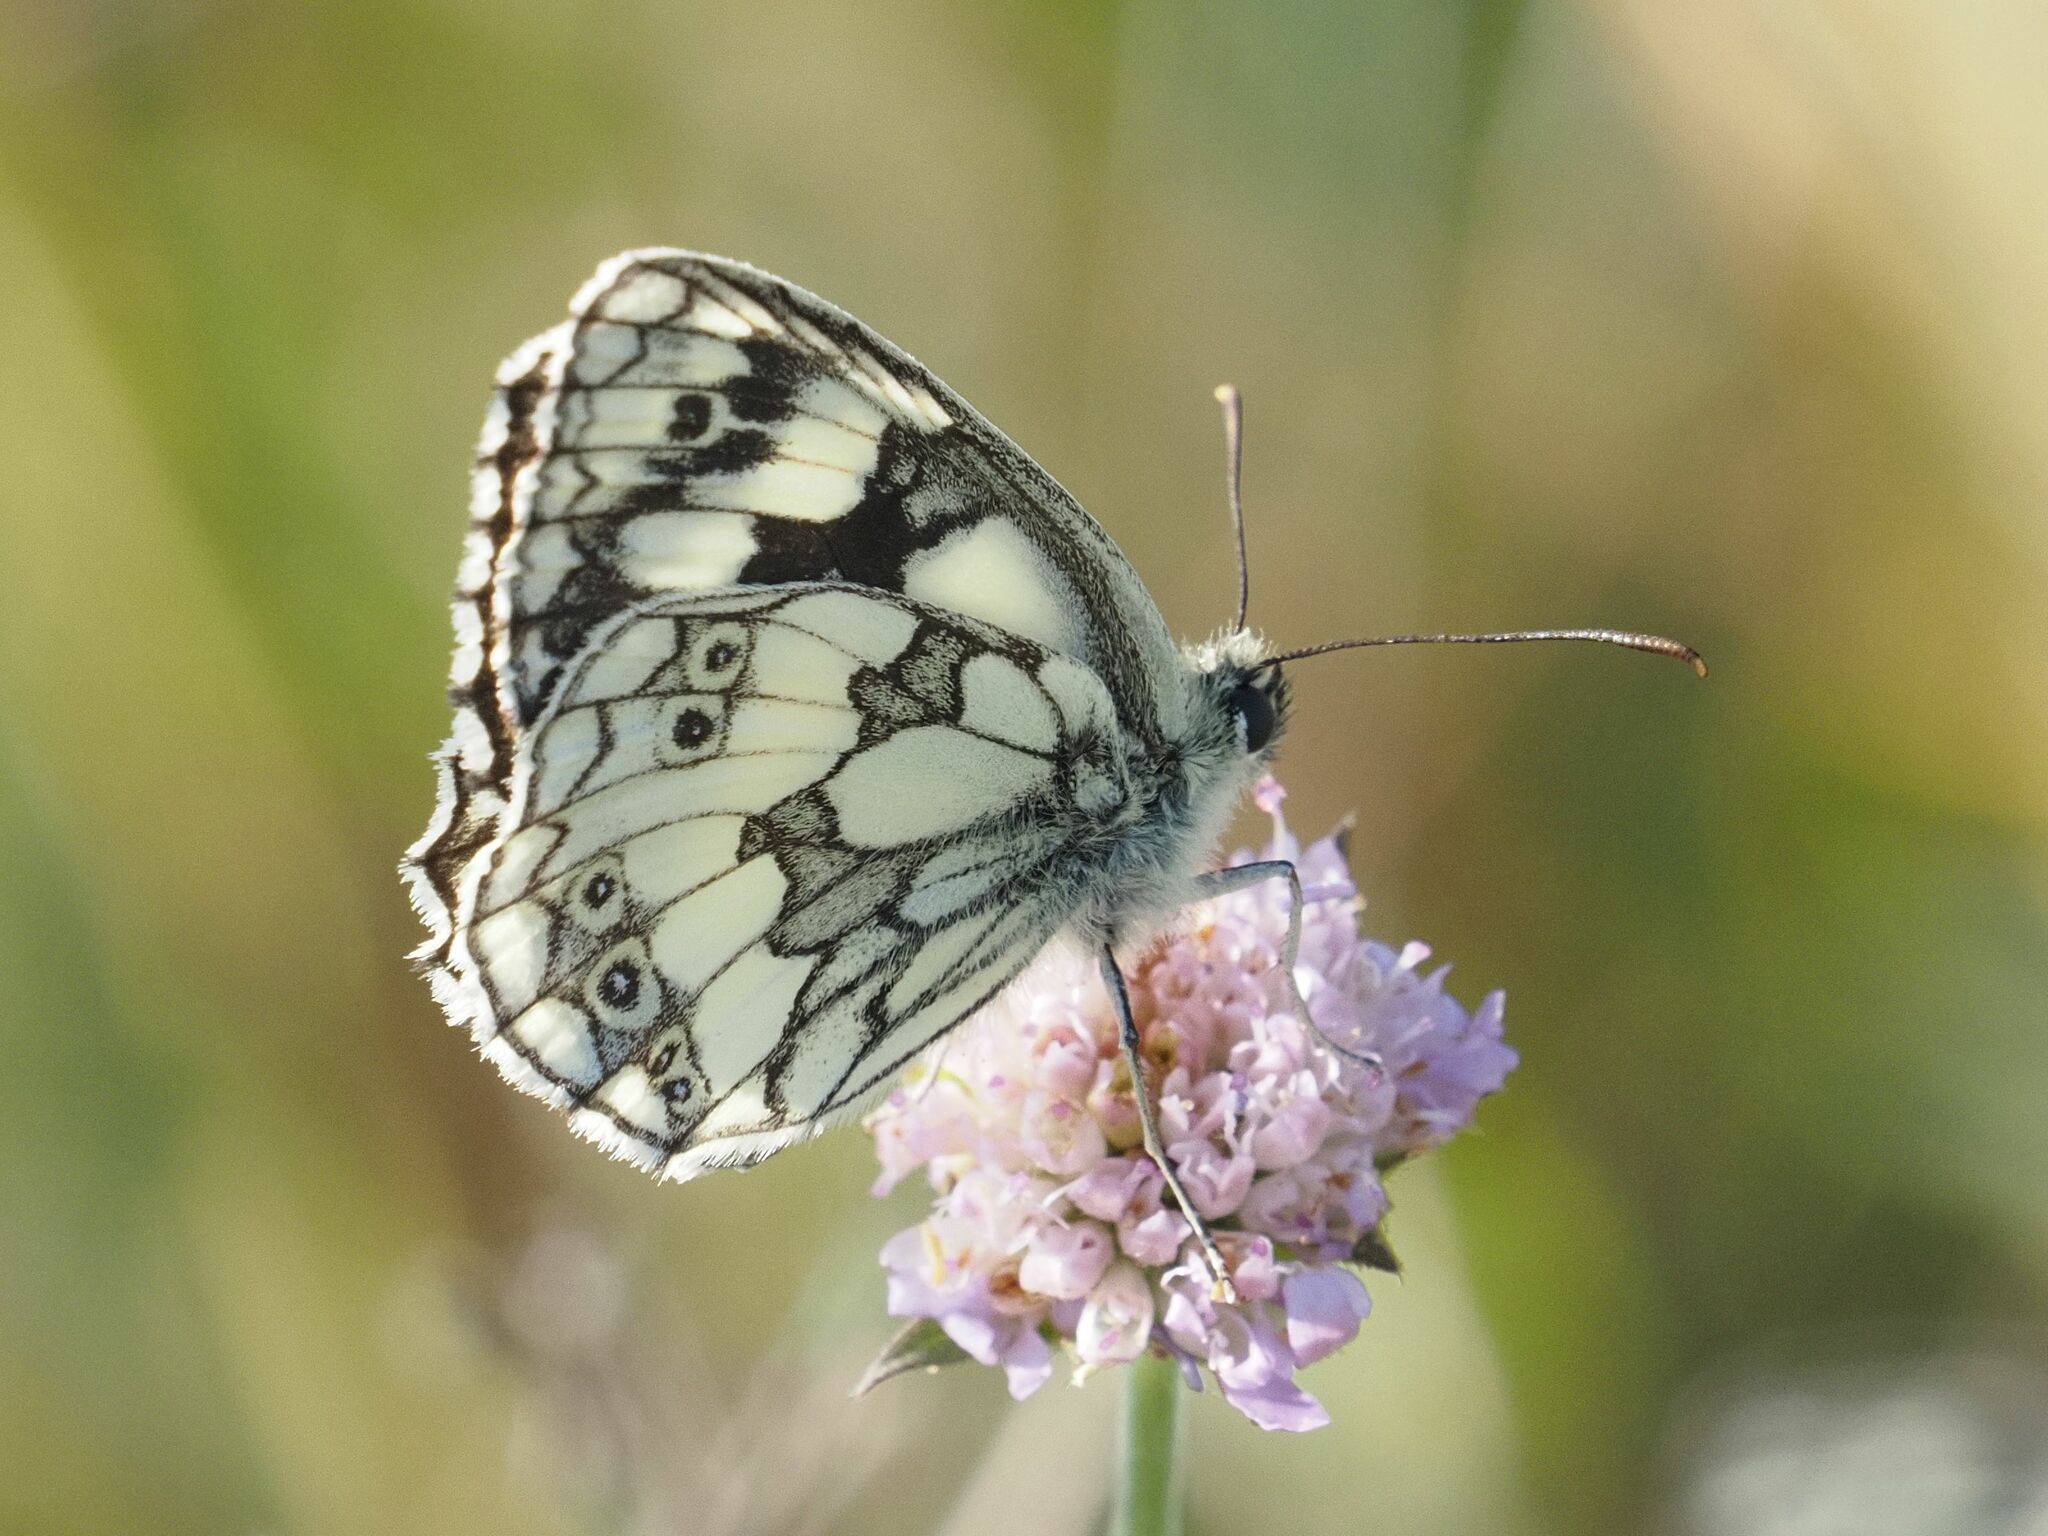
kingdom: Animalia
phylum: Arthropoda
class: Insecta
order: Lepidoptera
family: Nymphalidae
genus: Melanargia
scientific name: Melanargia galathea
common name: Marbled white
